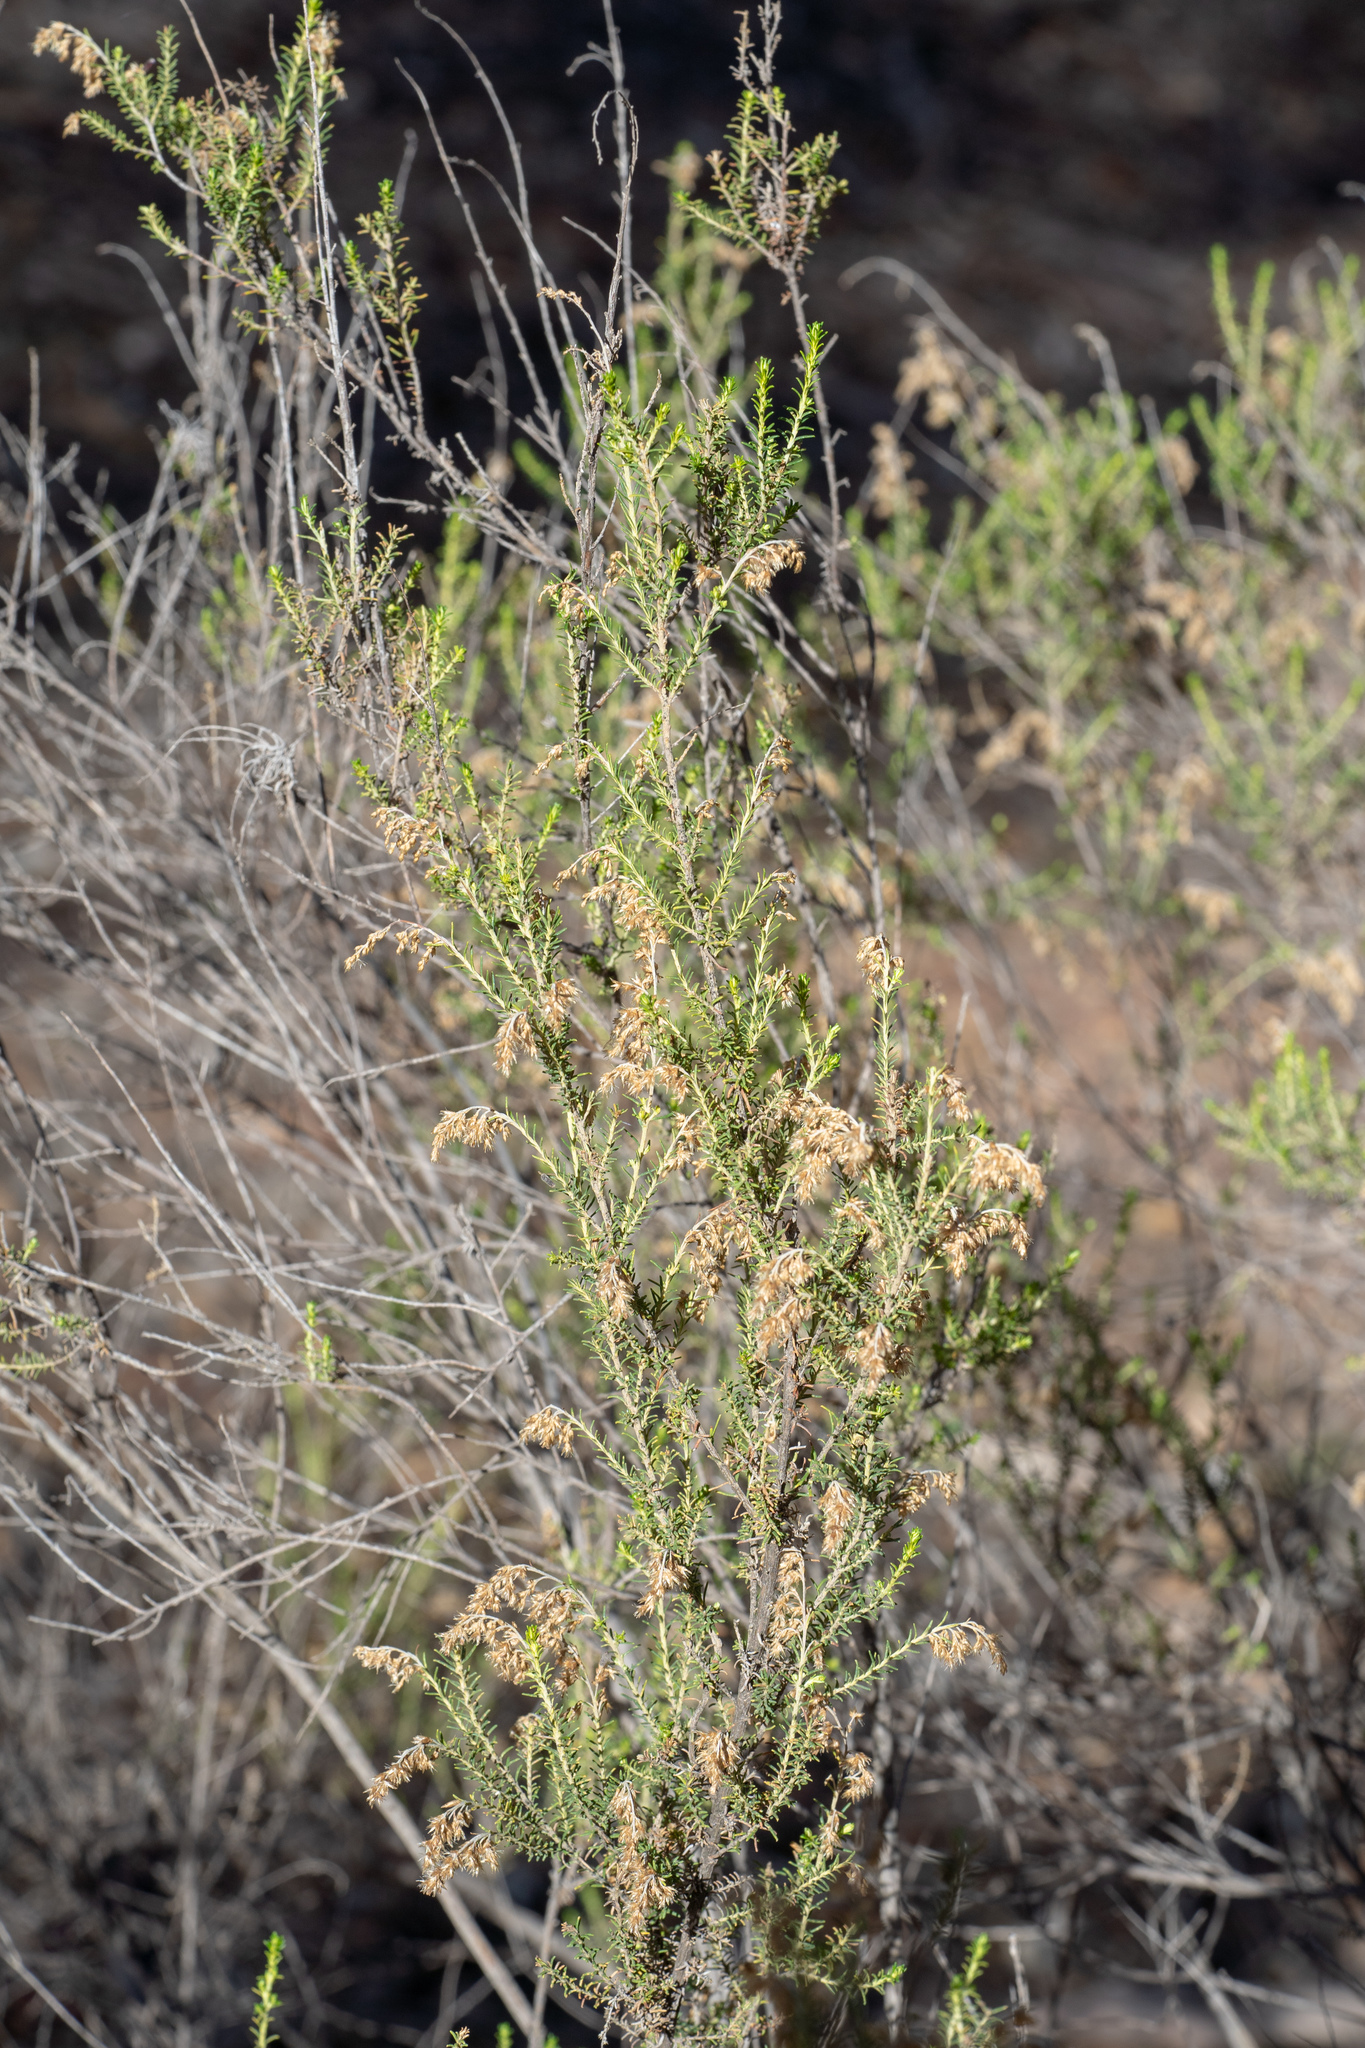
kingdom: Plantae
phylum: Tracheophyta
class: Magnoliopsida
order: Asterales
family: Asteraceae
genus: Cassinia
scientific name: Cassinia sifton
